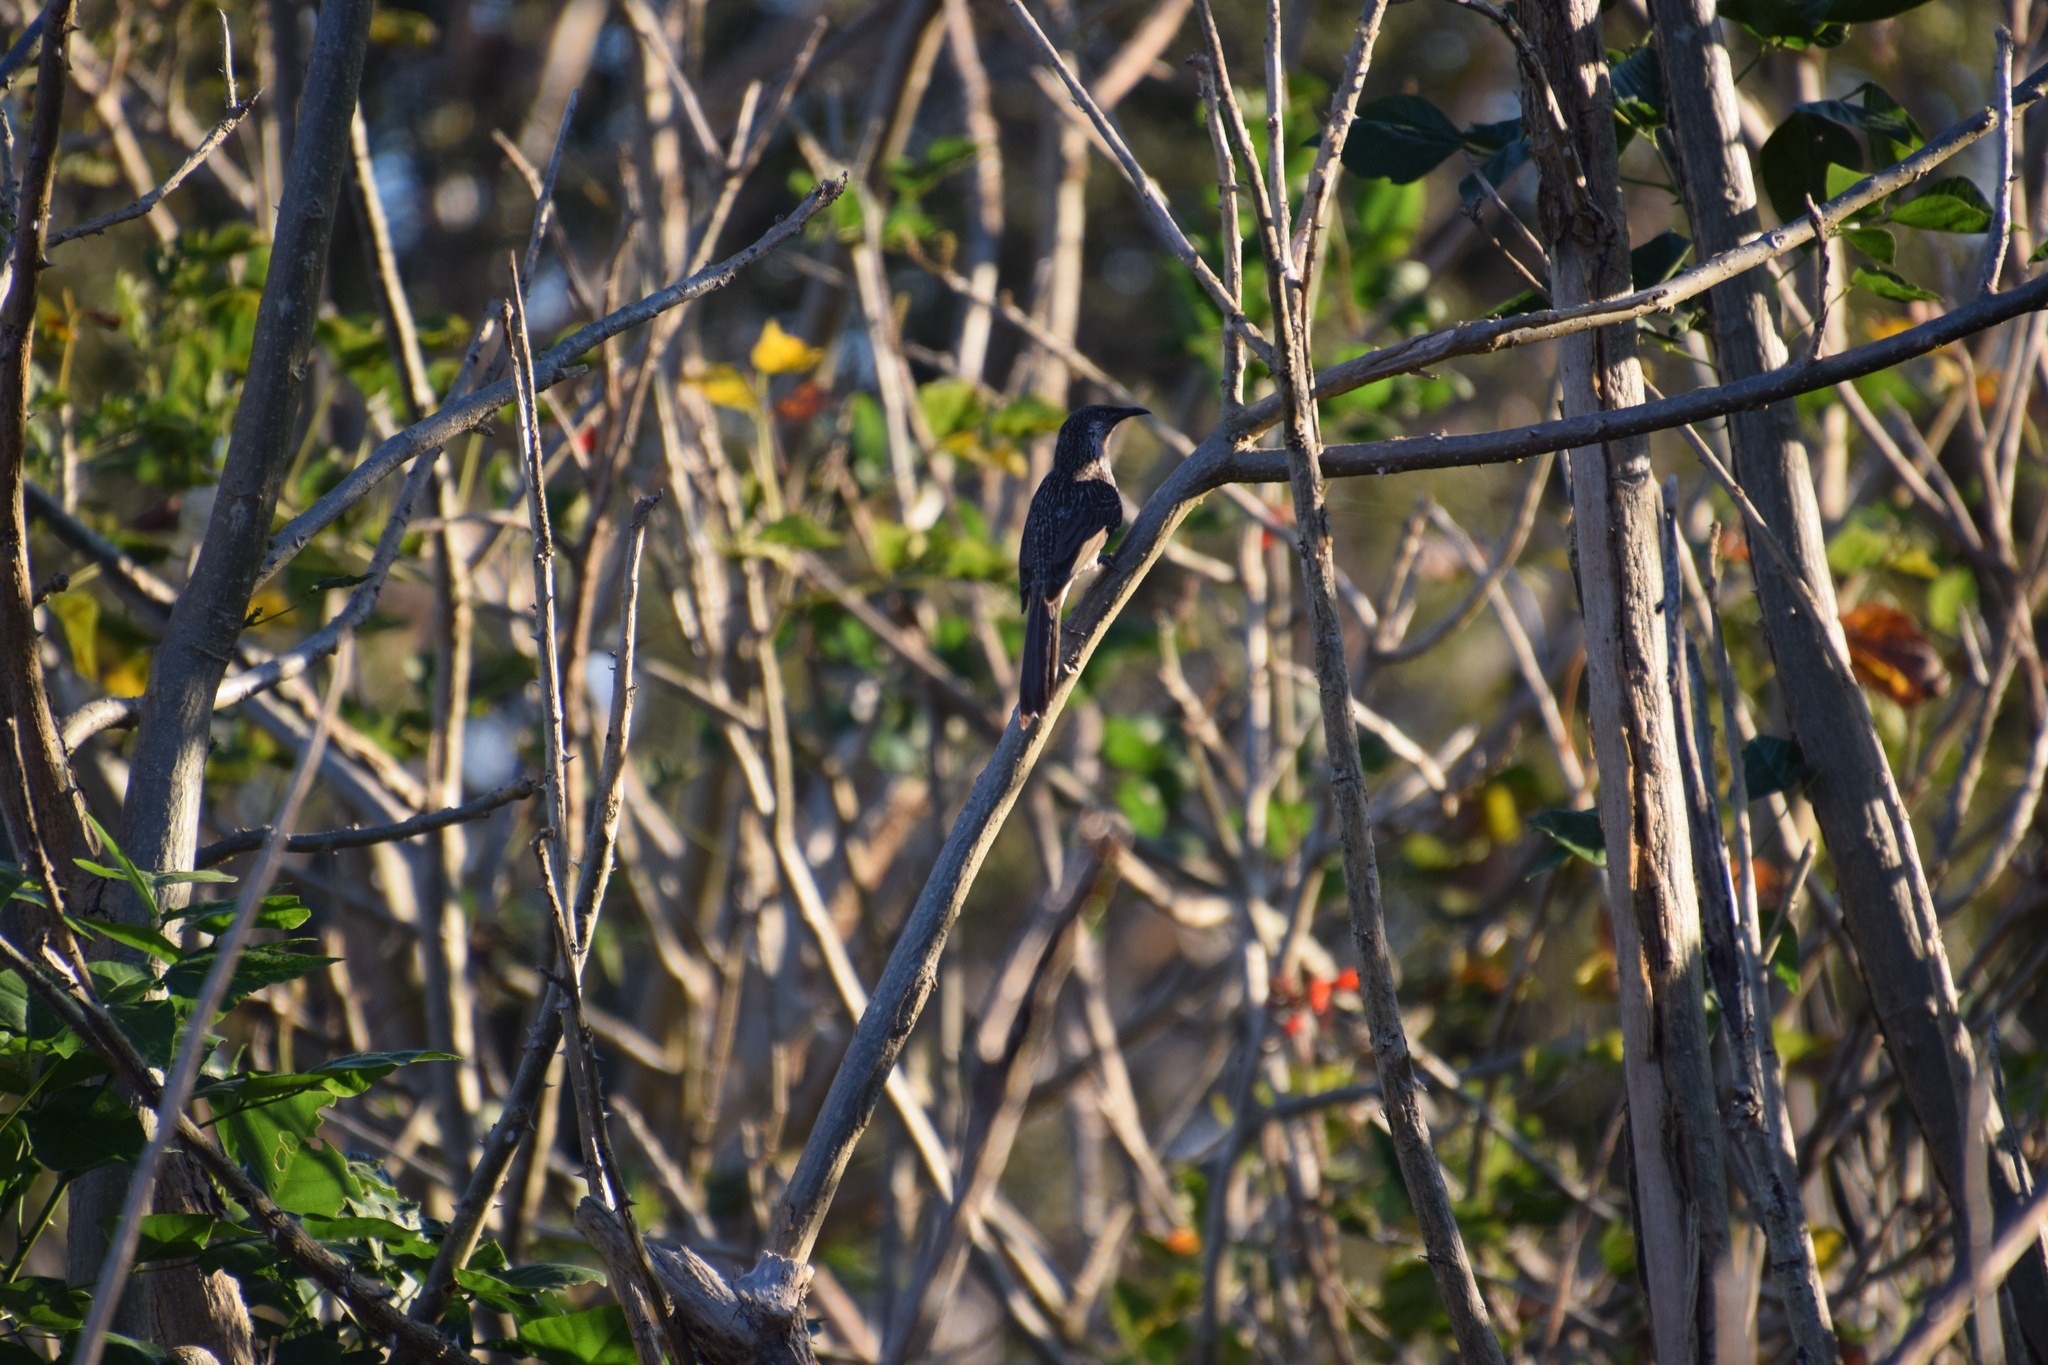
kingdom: Animalia
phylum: Chordata
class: Aves
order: Passeriformes
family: Meliphagidae
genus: Anthochaera
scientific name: Anthochaera chrysoptera
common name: Little wattlebird
